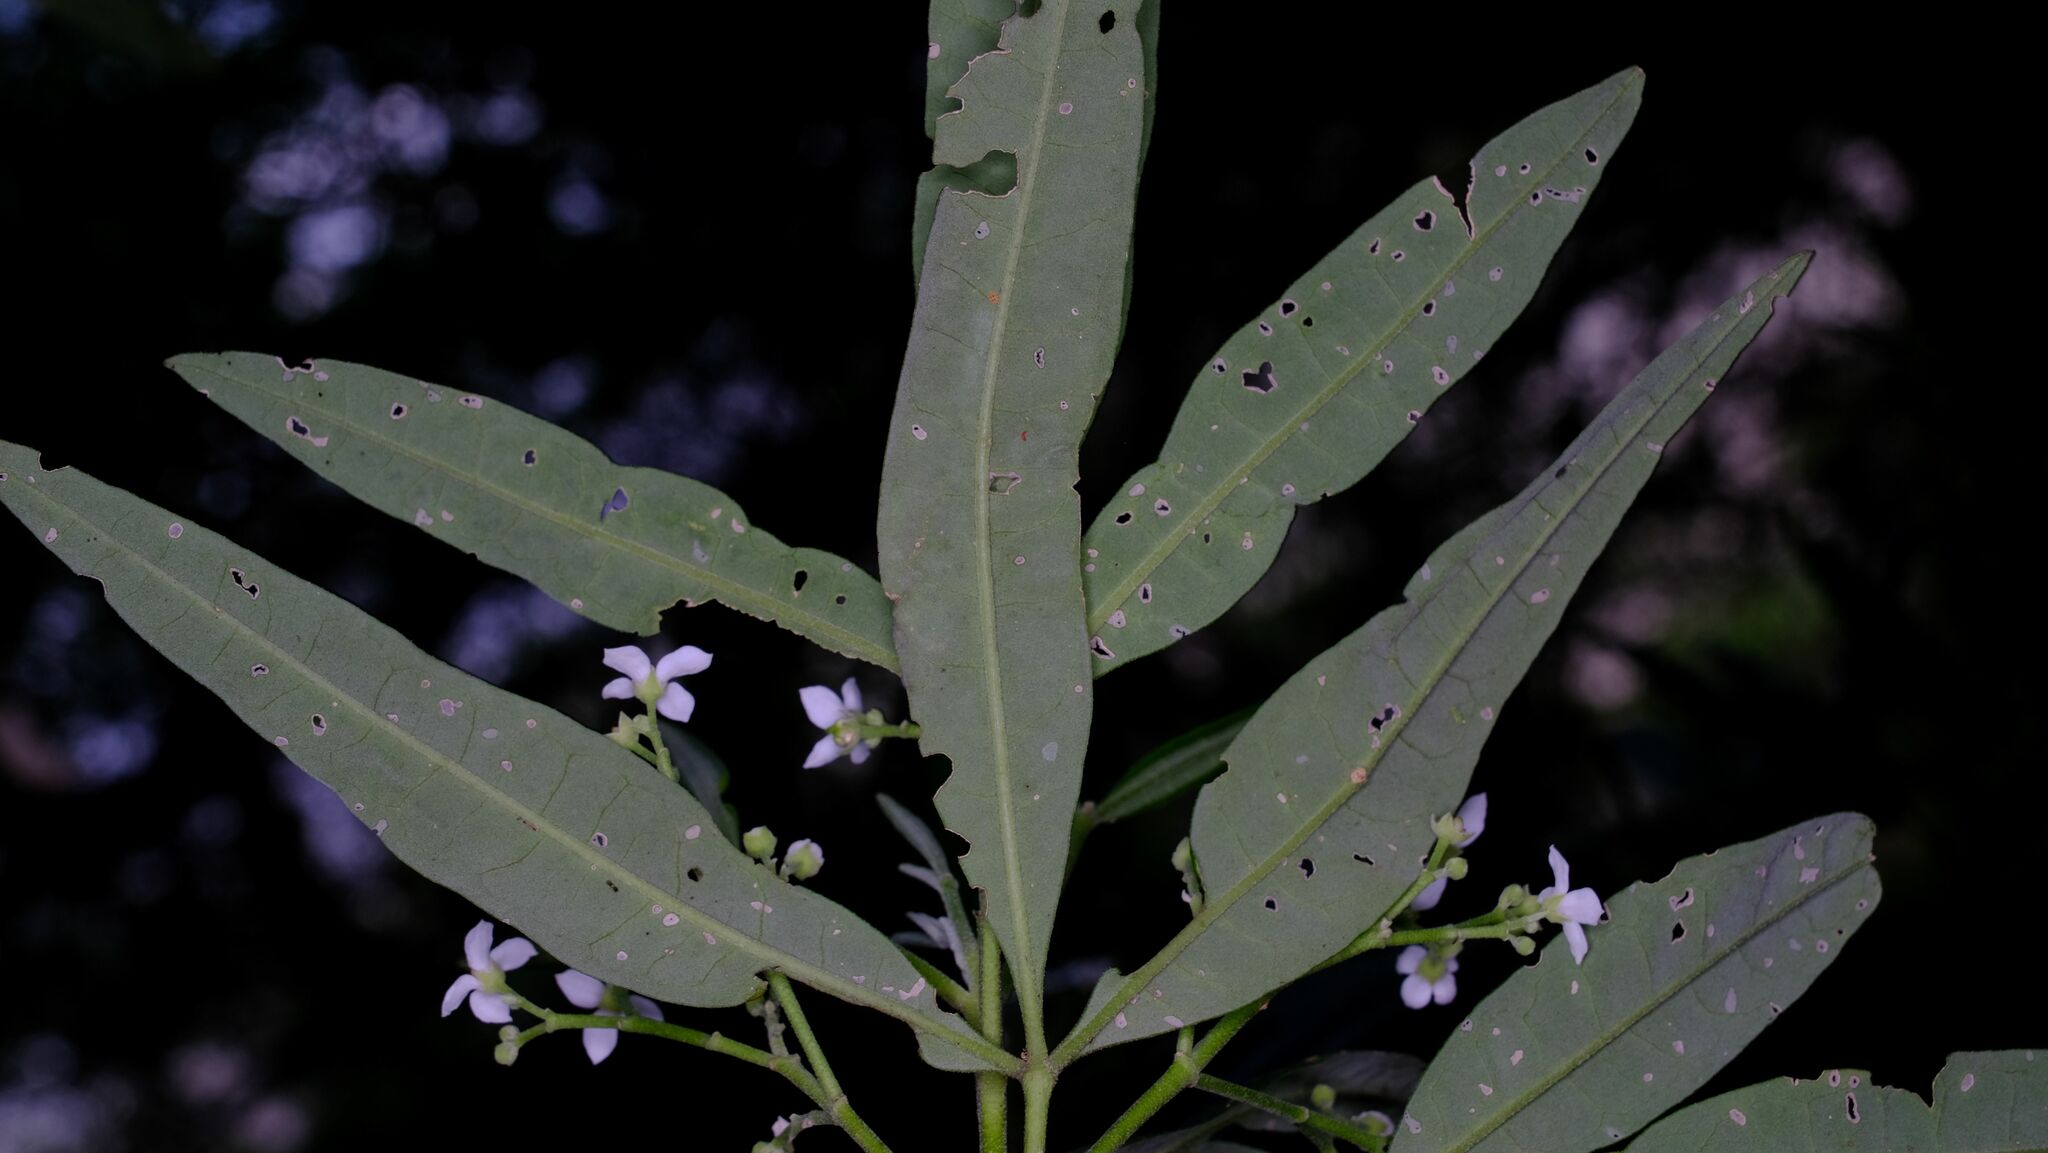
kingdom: Plantae
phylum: Tracheophyta
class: Magnoliopsida
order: Sapindales
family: Rutaceae
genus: Zieria
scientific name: Zieria arborescens
